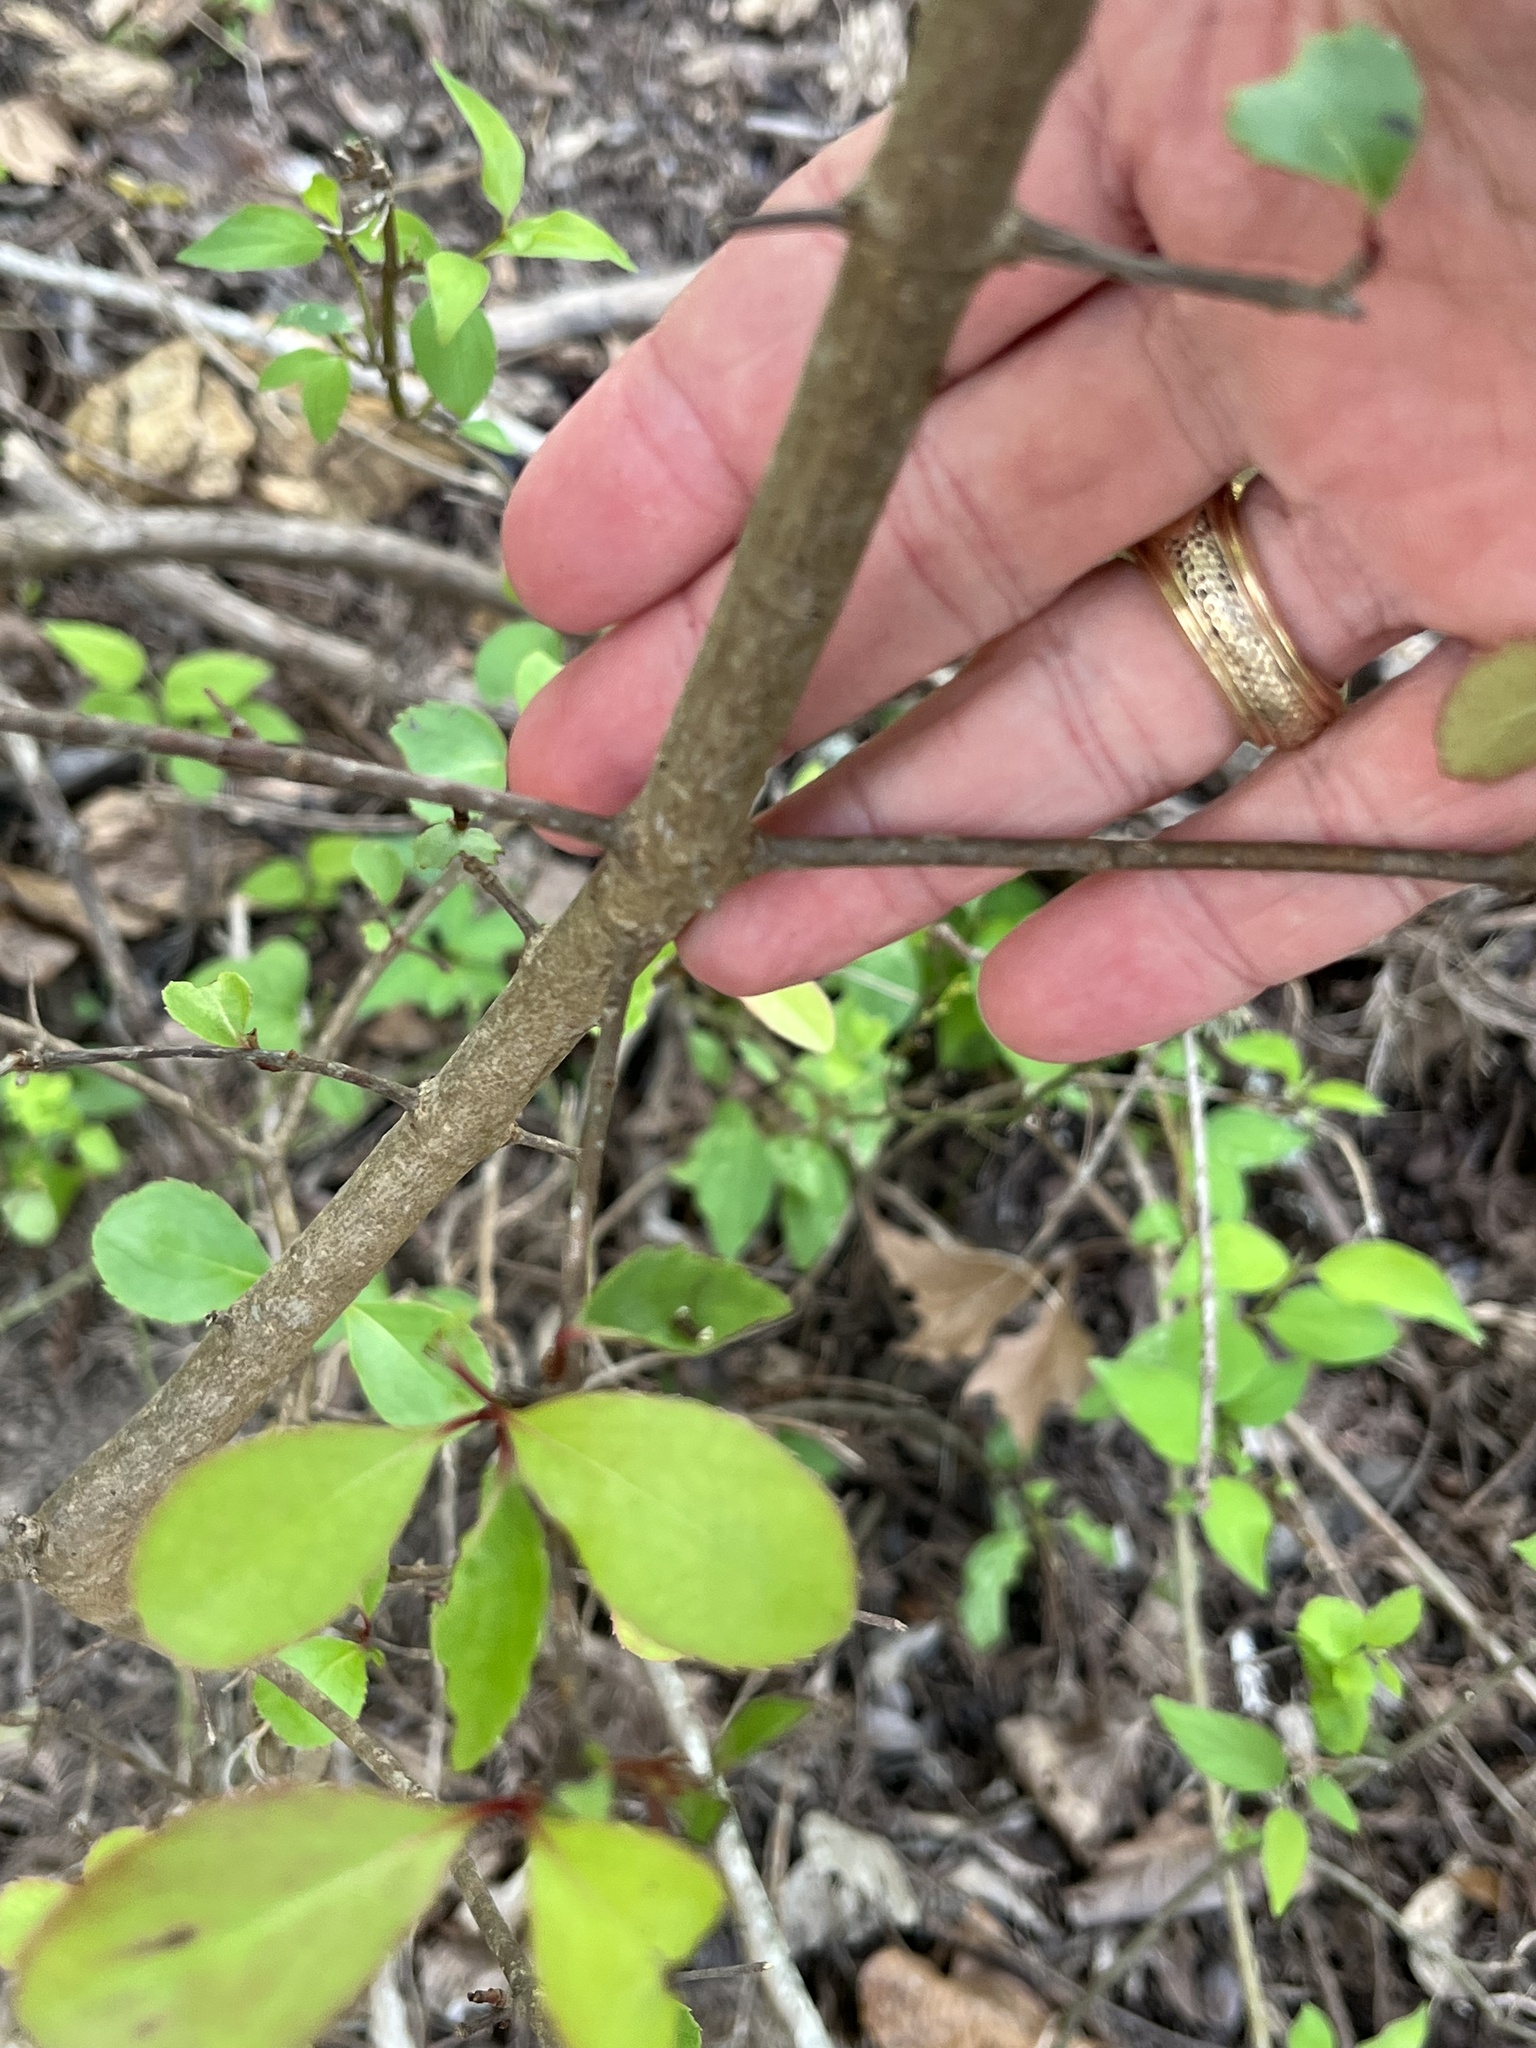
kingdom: Plantae
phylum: Tracheophyta
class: Magnoliopsida
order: Dipsacales
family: Viburnaceae
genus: Viburnum
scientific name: Viburnum rufidulum
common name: Blue haw
